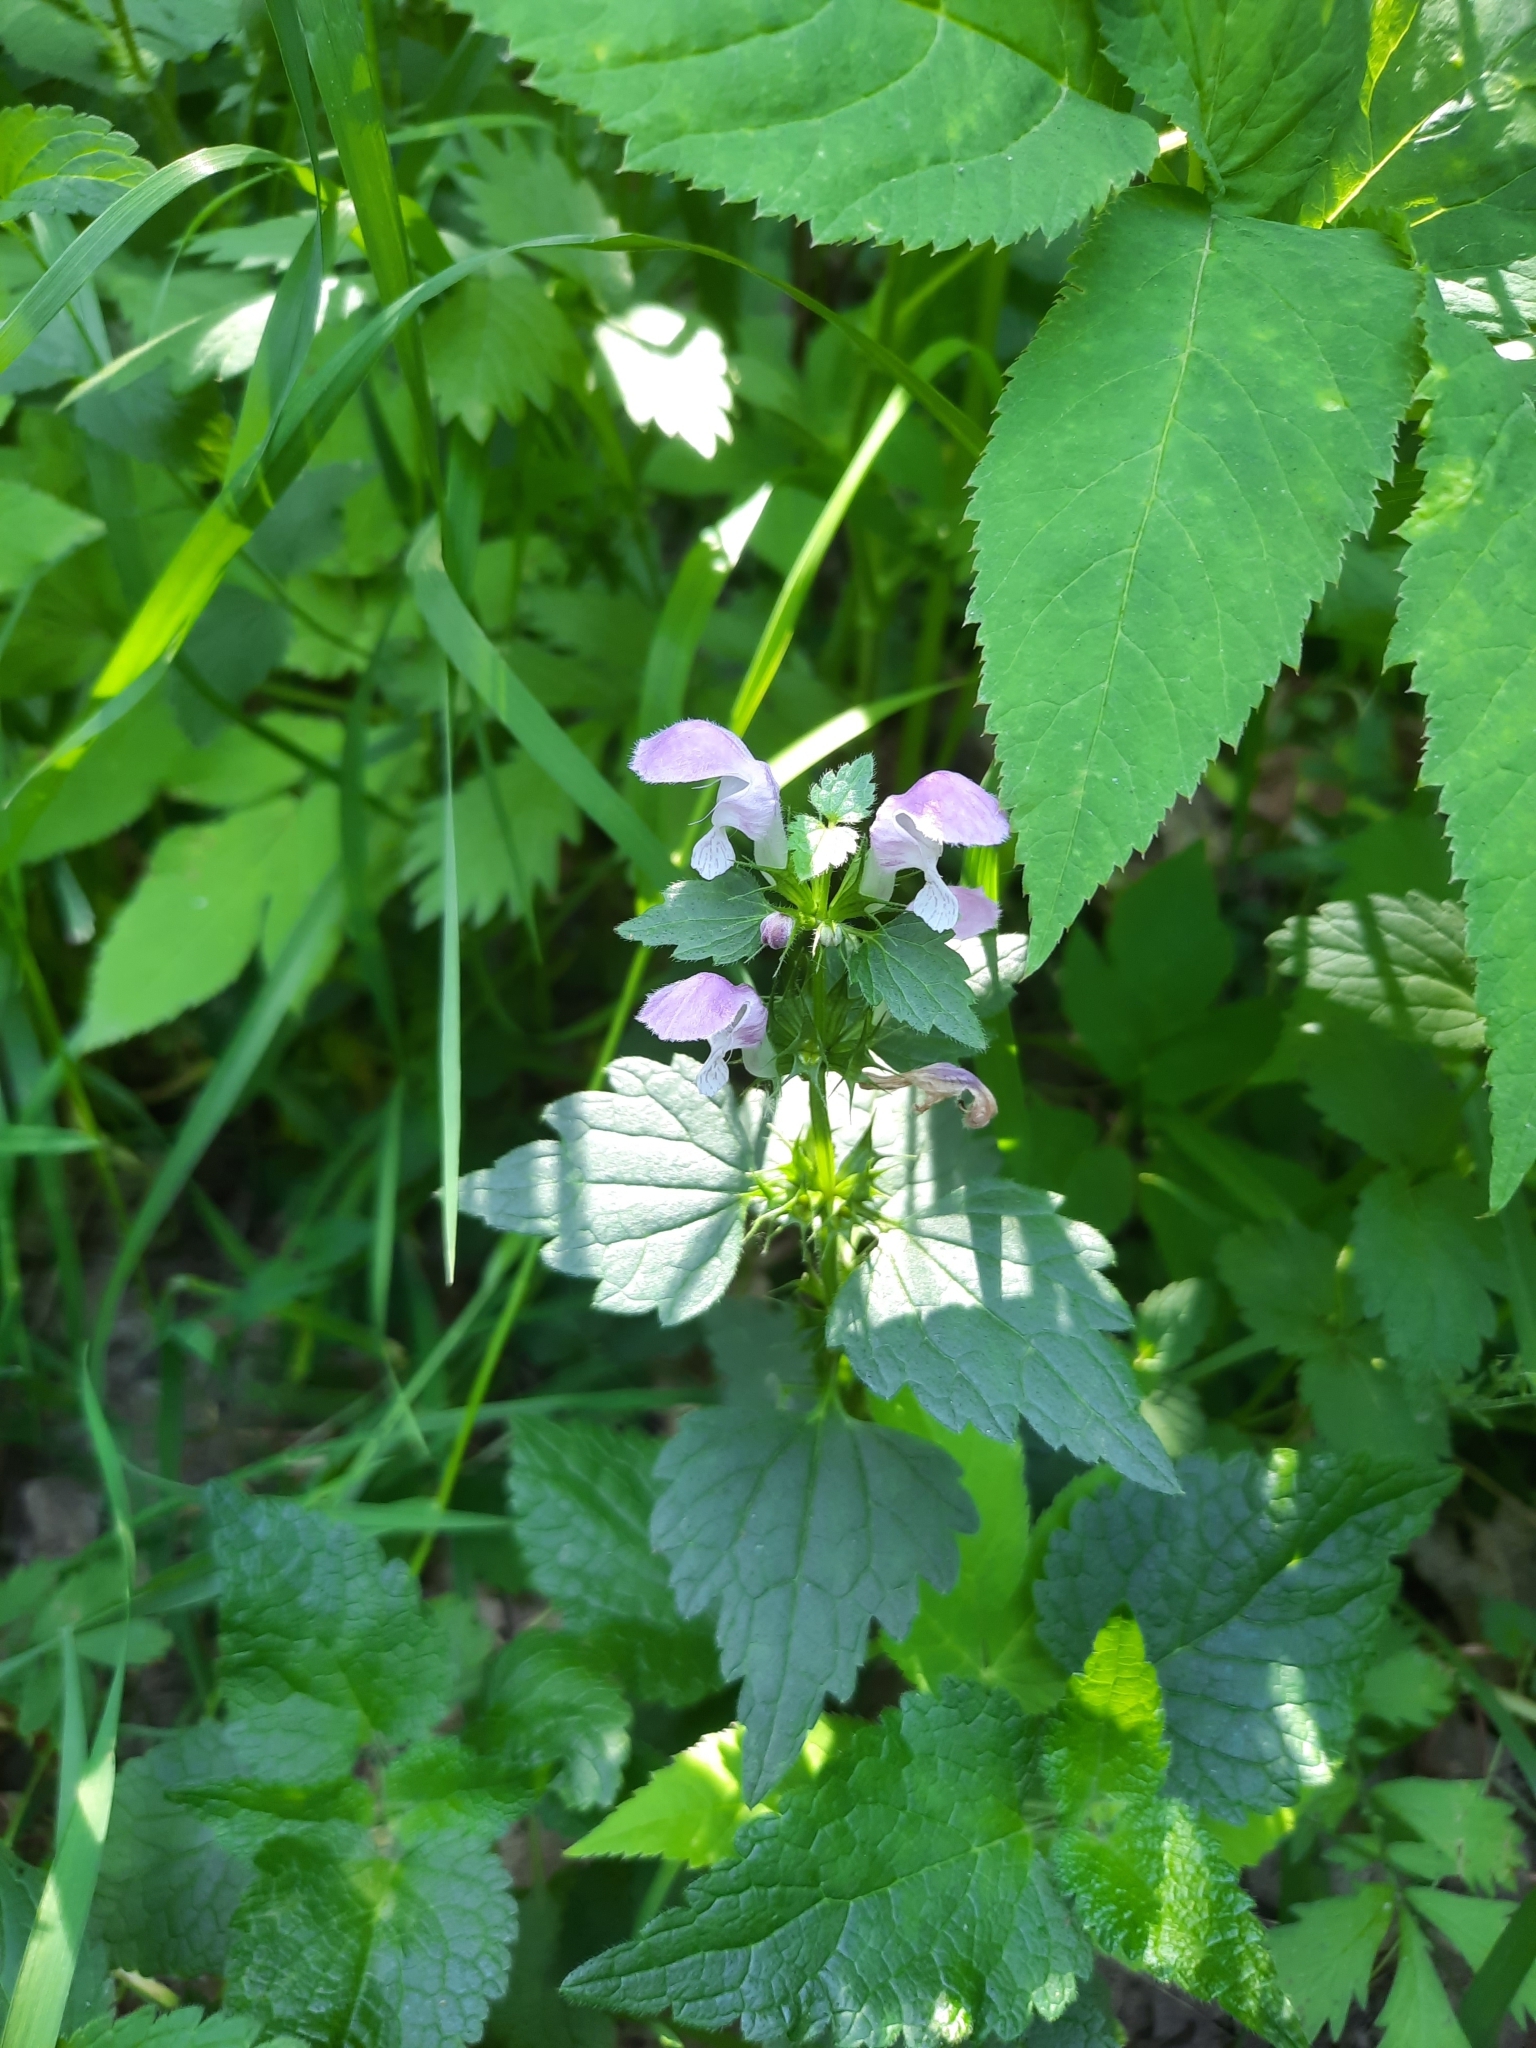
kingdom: Plantae
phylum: Tracheophyta
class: Magnoliopsida
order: Lamiales
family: Lamiaceae
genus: Lamium
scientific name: Lamium maculatum
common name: Spotted dead-nettle
